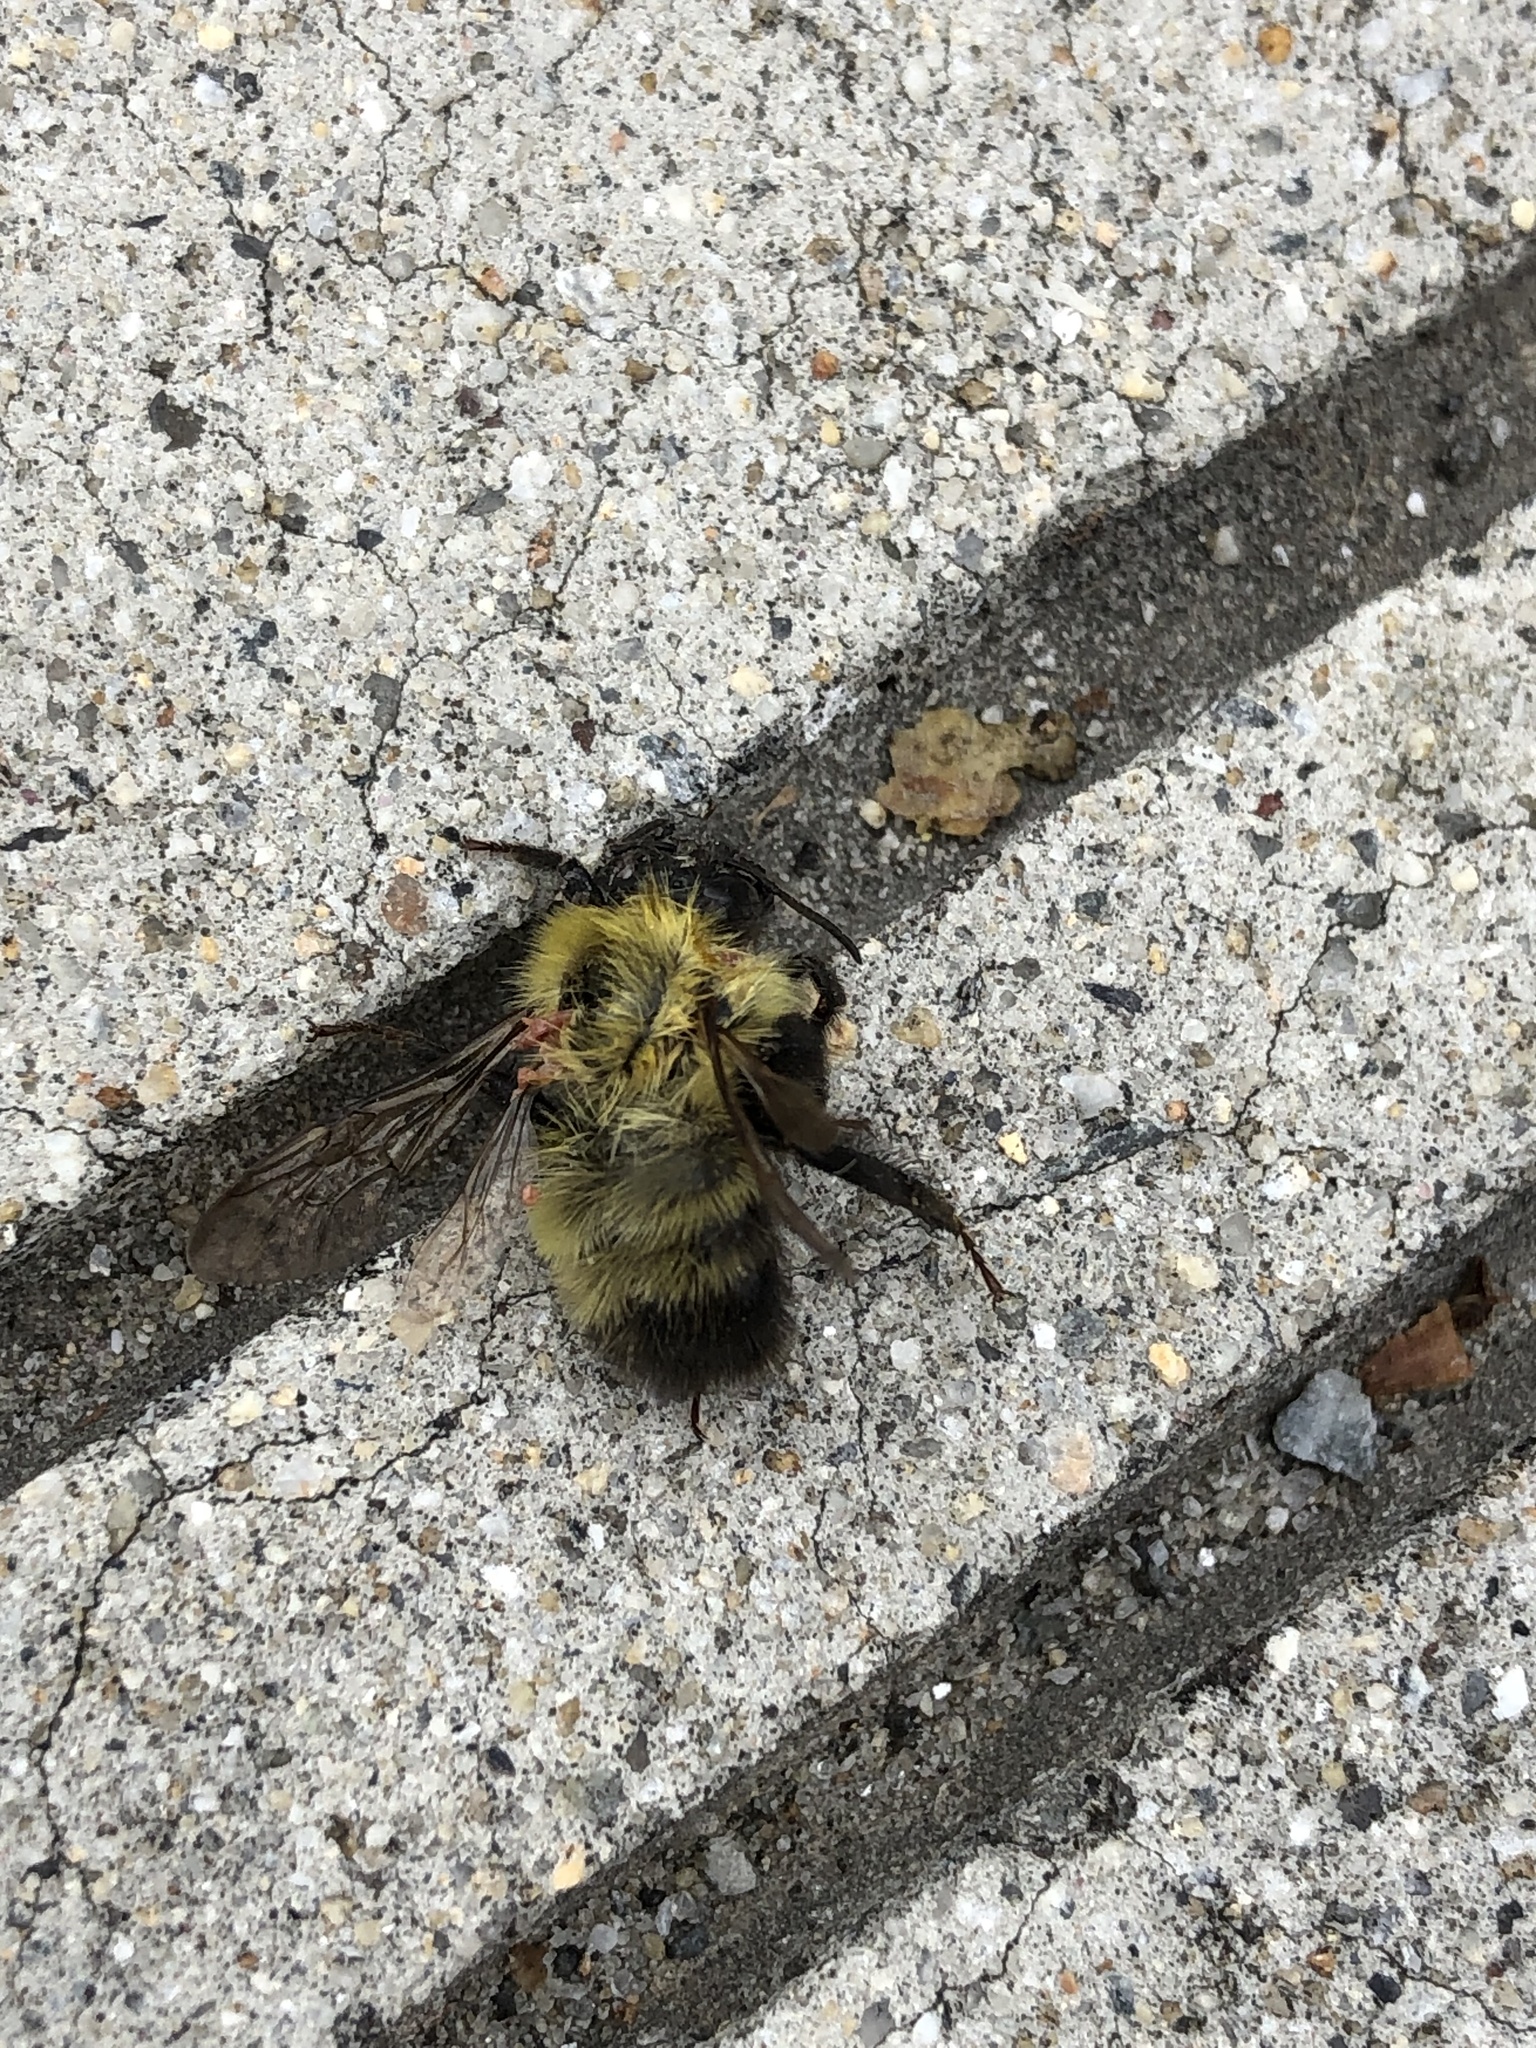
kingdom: Animalia
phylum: Arthropoda
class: Insecta
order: Hymenoptera
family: Apidae
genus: Bombus
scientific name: Bombus perplexus
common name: Confusing bumble bee
